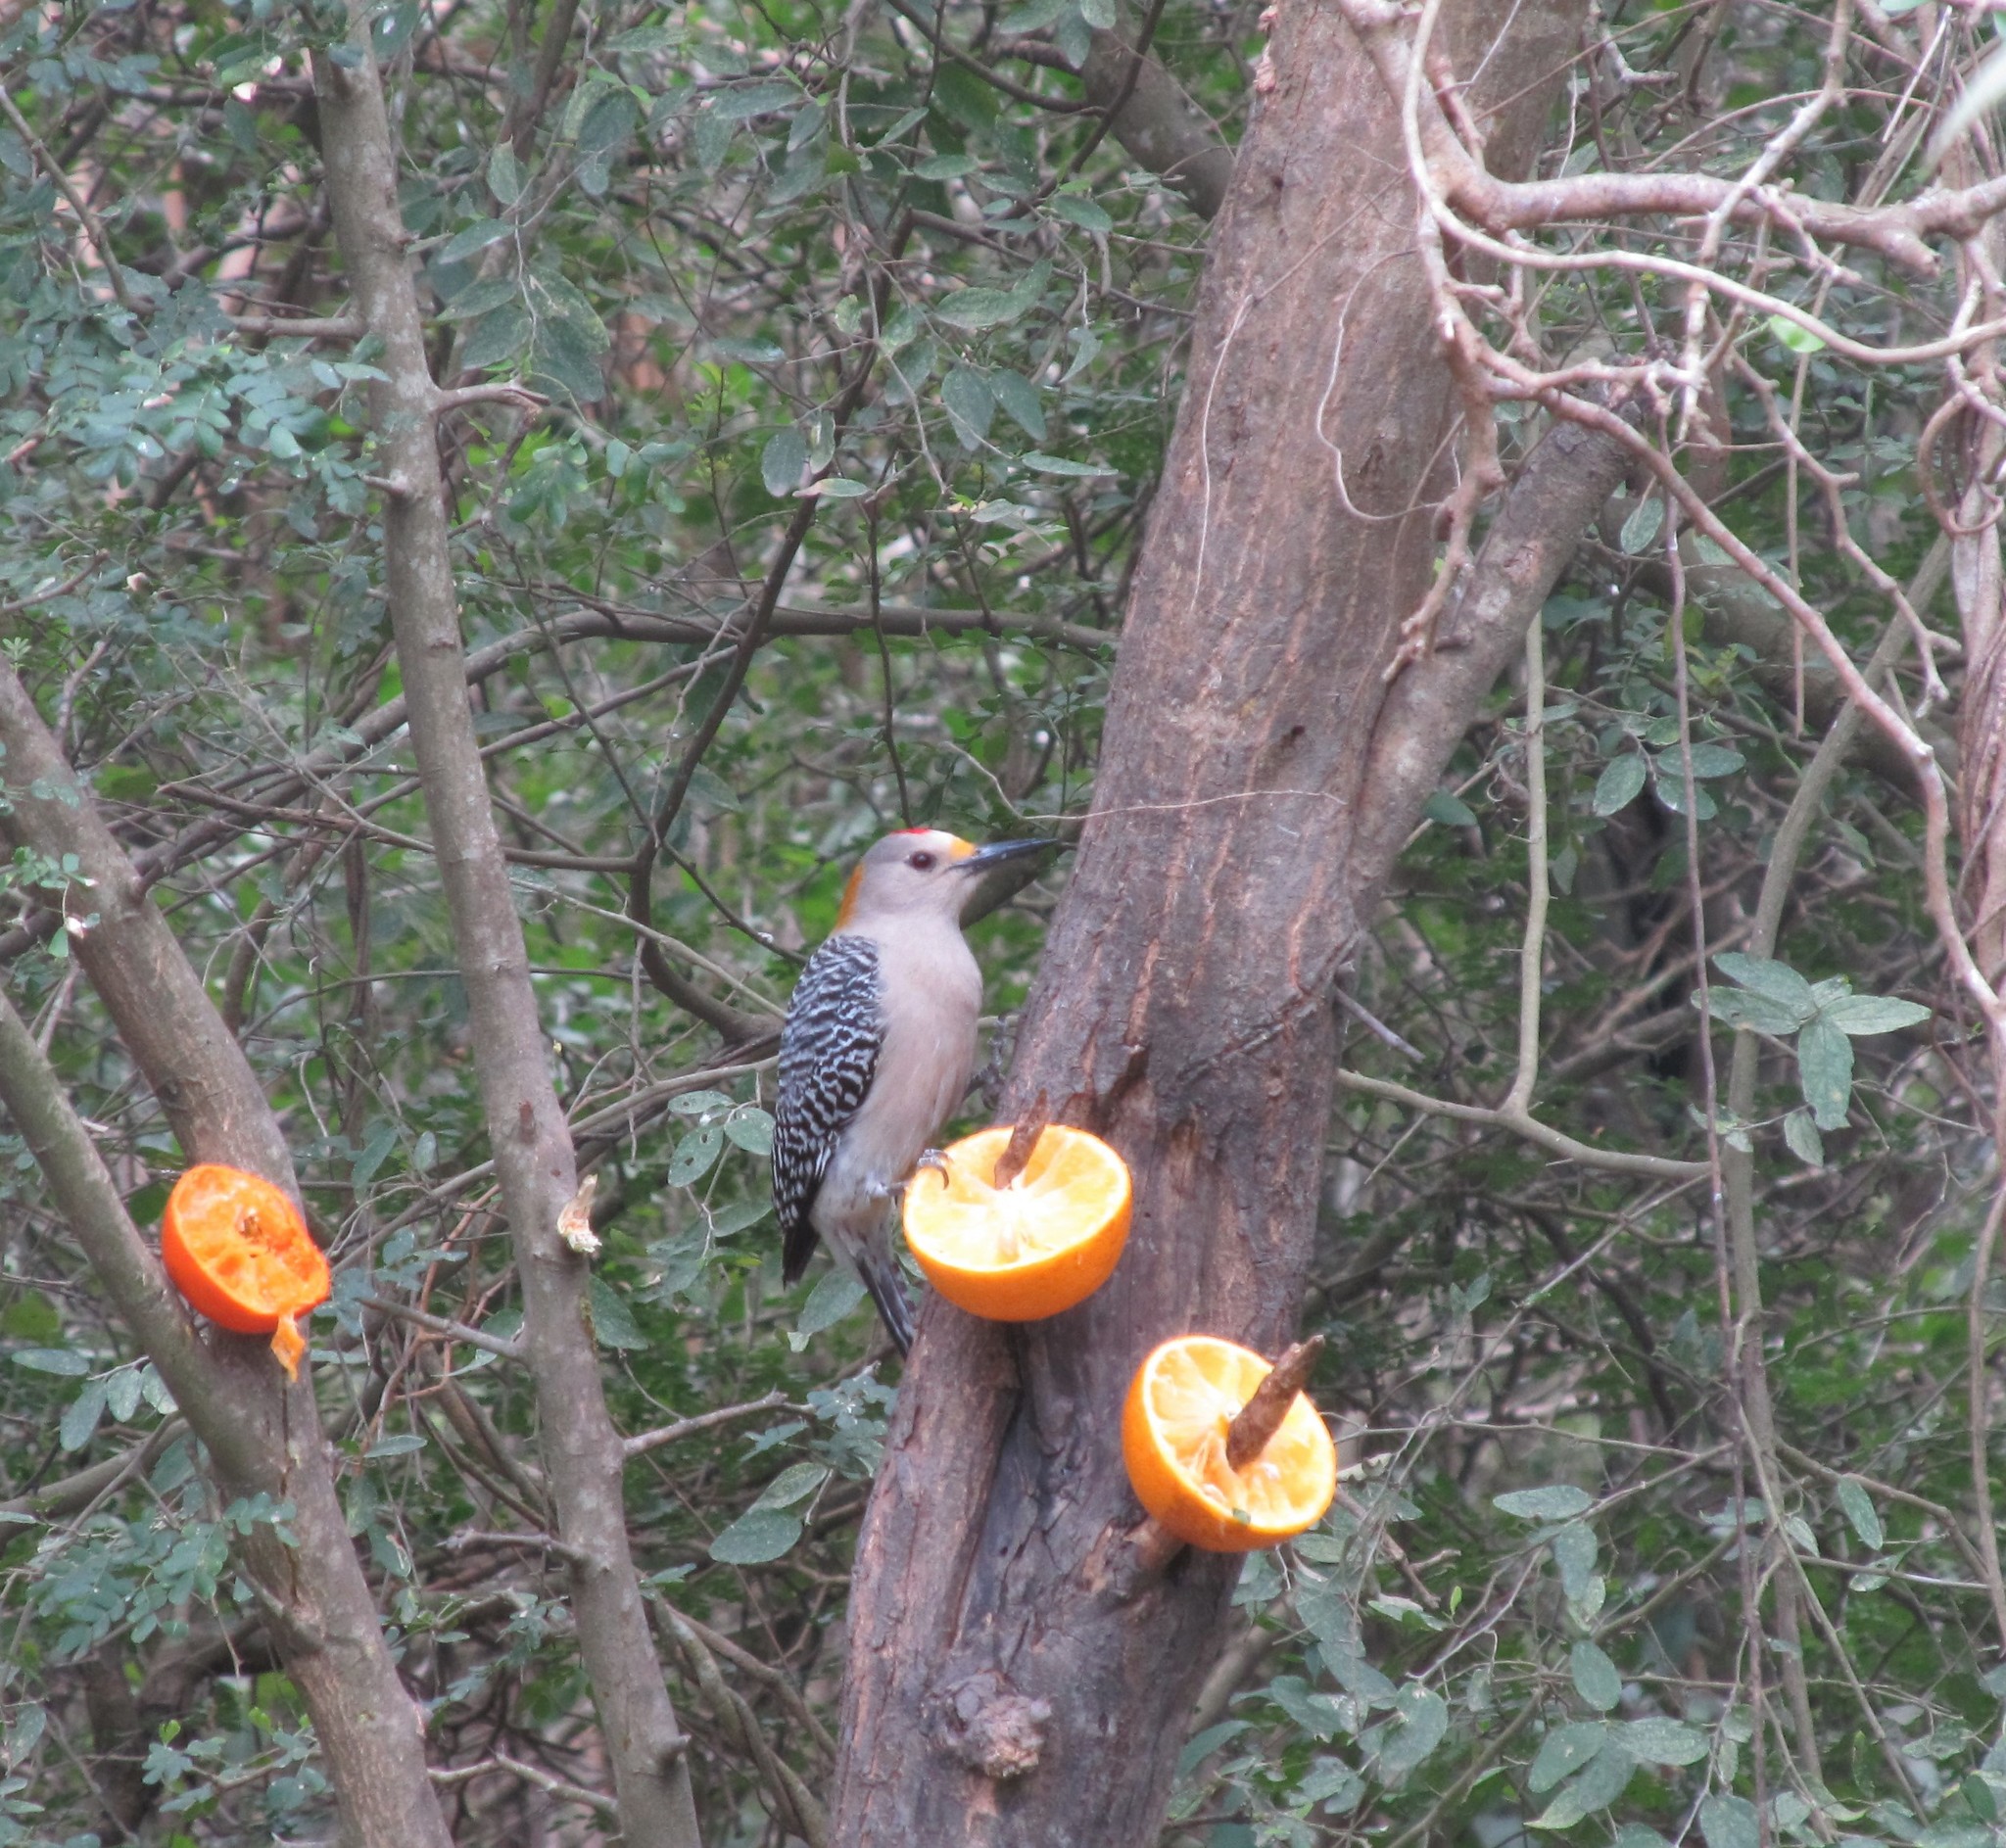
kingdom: Animalia
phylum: Chordata
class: Aves
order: Piciformes
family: Picidae
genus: Melanerpes
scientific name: Melanerpes aurifrons
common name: Golden-fronted woodpecker
